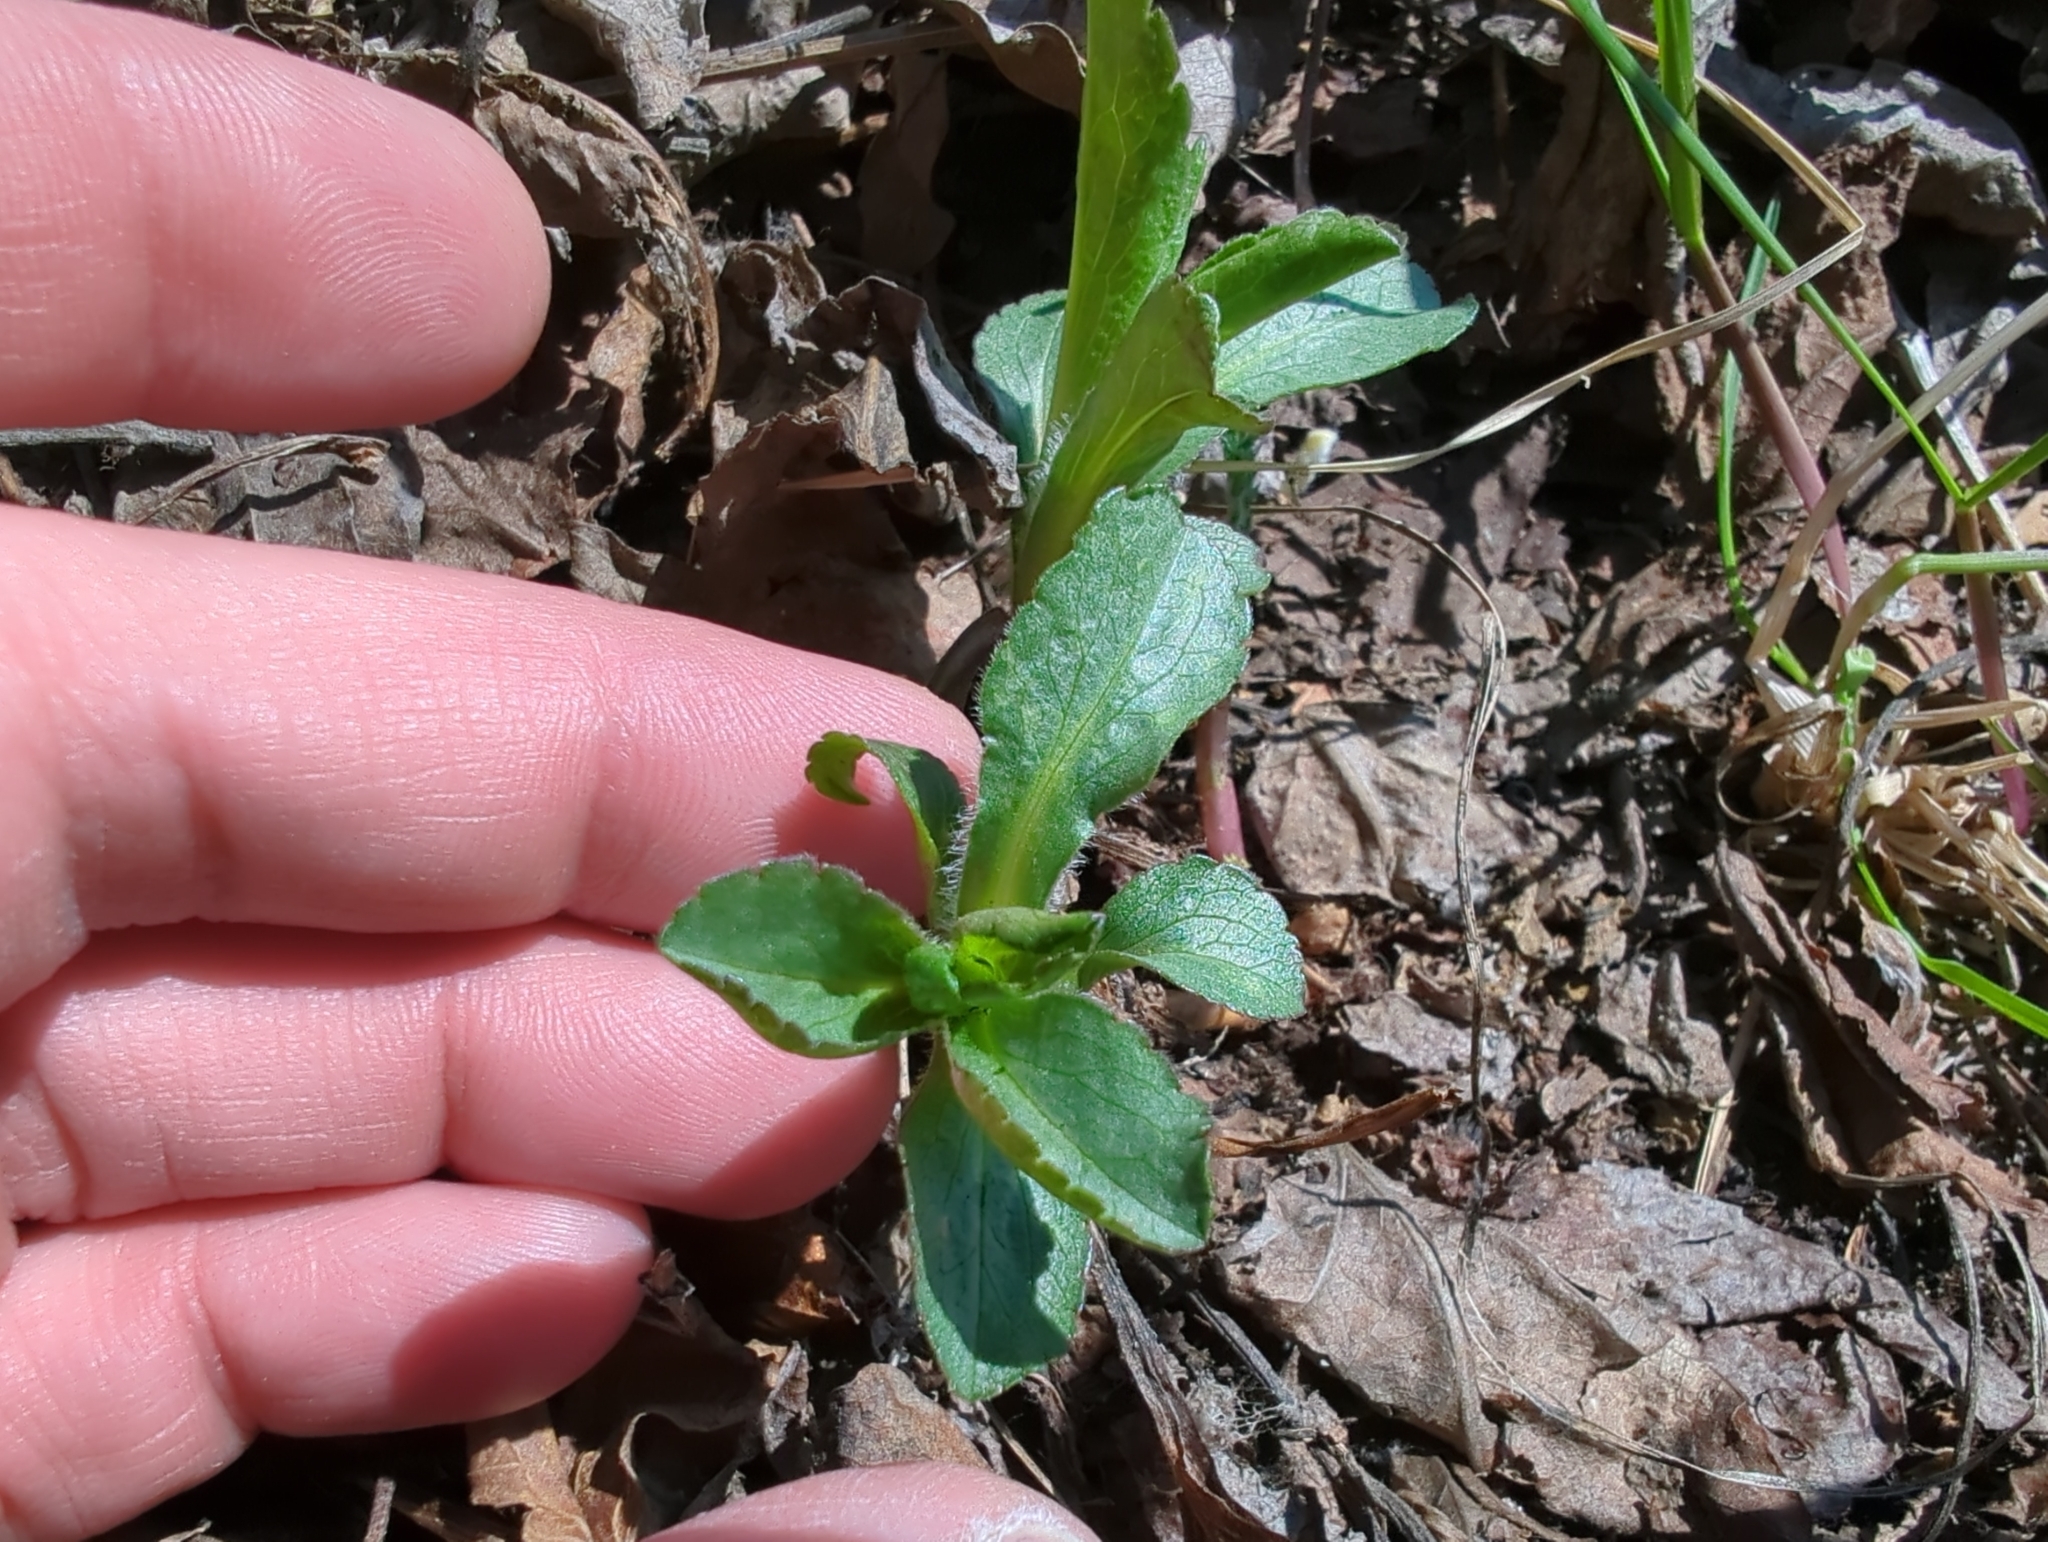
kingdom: Plantae
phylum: Tracheophyta
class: Magnoliopsida
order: Asterales
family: Asteraceae
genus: Solidago
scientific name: Solidago multiradiata
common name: Northern goldenrod
